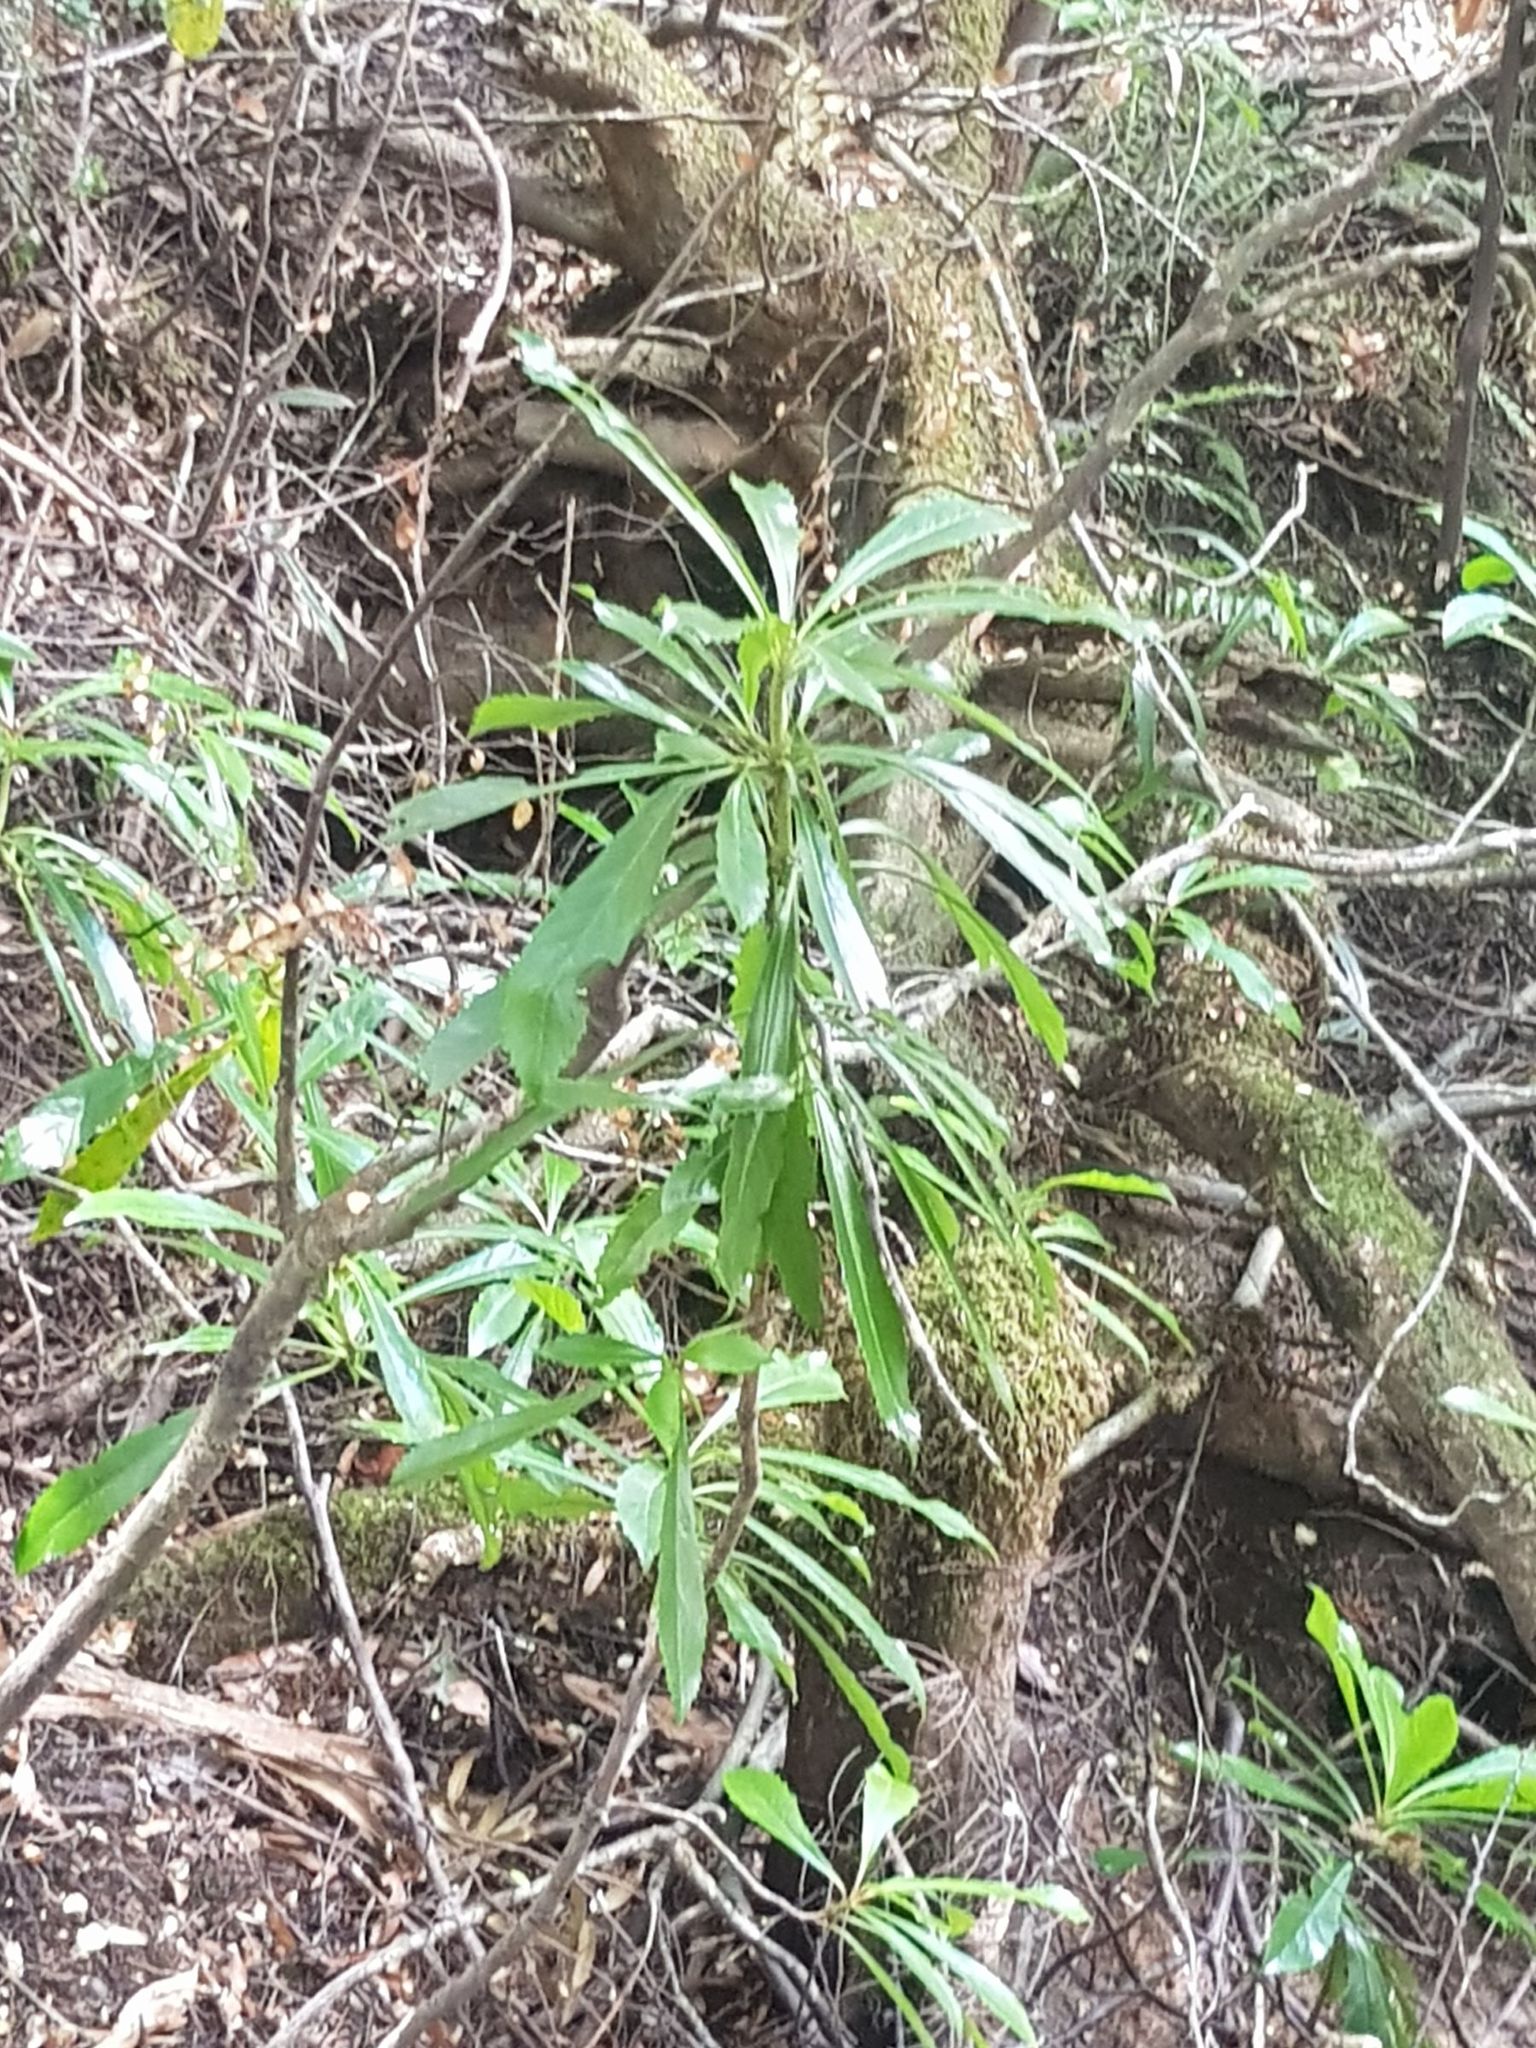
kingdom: Plantae
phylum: Tracheophyta
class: Magnoliopsida
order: Escalloniales
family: Escalloniaceae
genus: Anopterus
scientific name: Anopterus glandulosus
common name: Tasmanian-laurel
